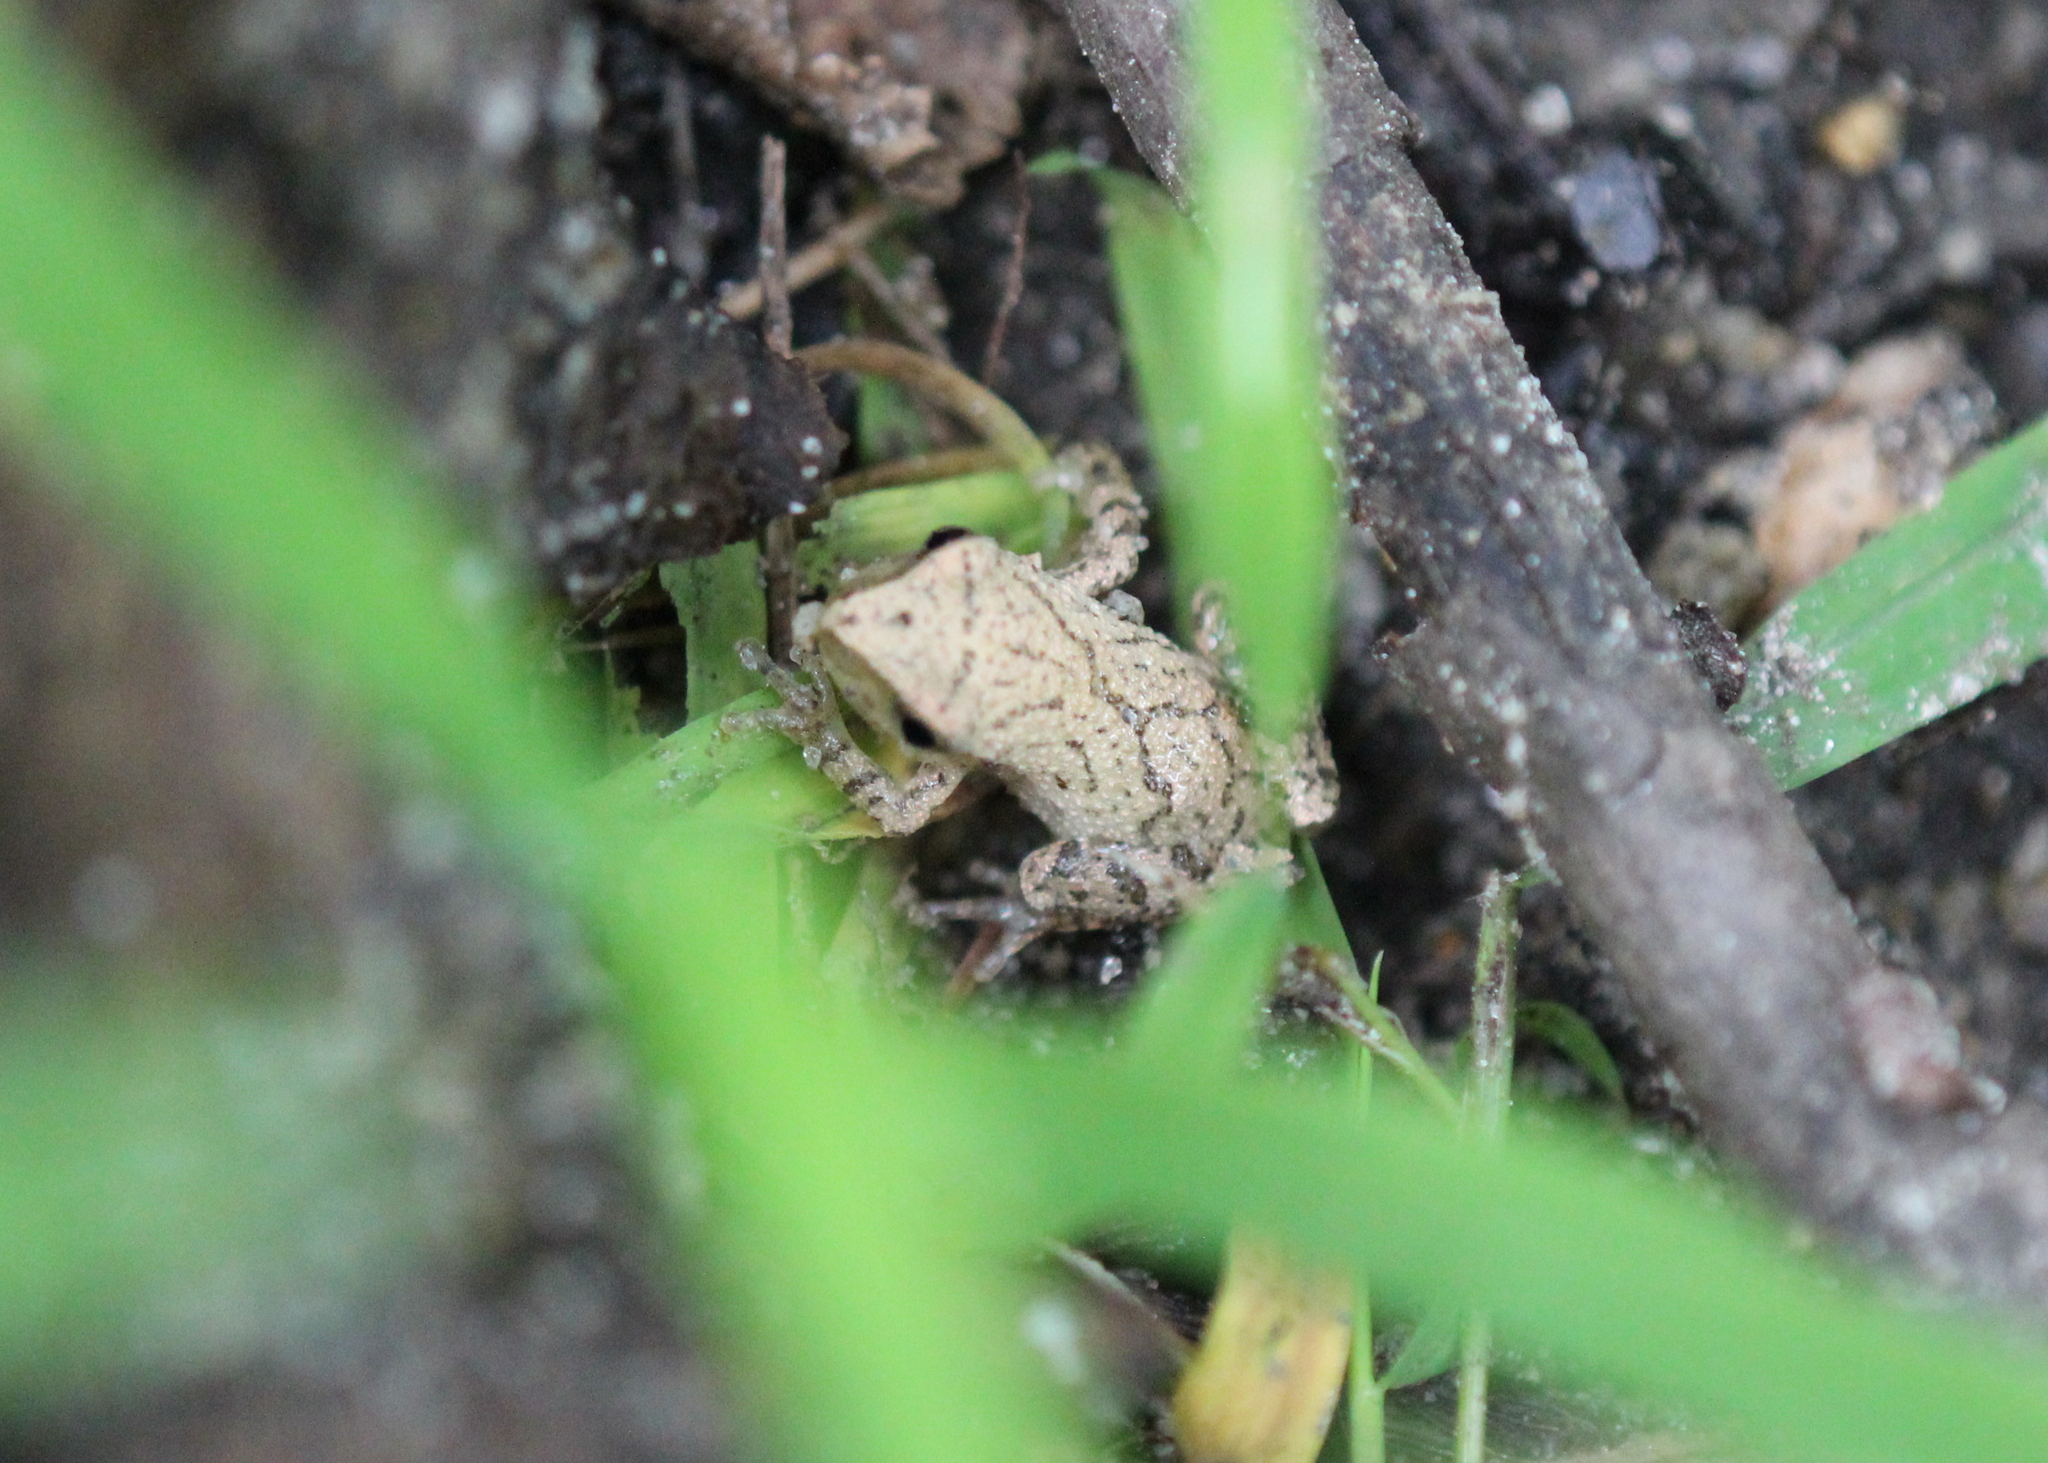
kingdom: Animalia
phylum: Chordata
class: Amphibia
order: Anura
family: Hylidae
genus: Pseudacris
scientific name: Pseudacris crucifer
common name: Spring peeper
